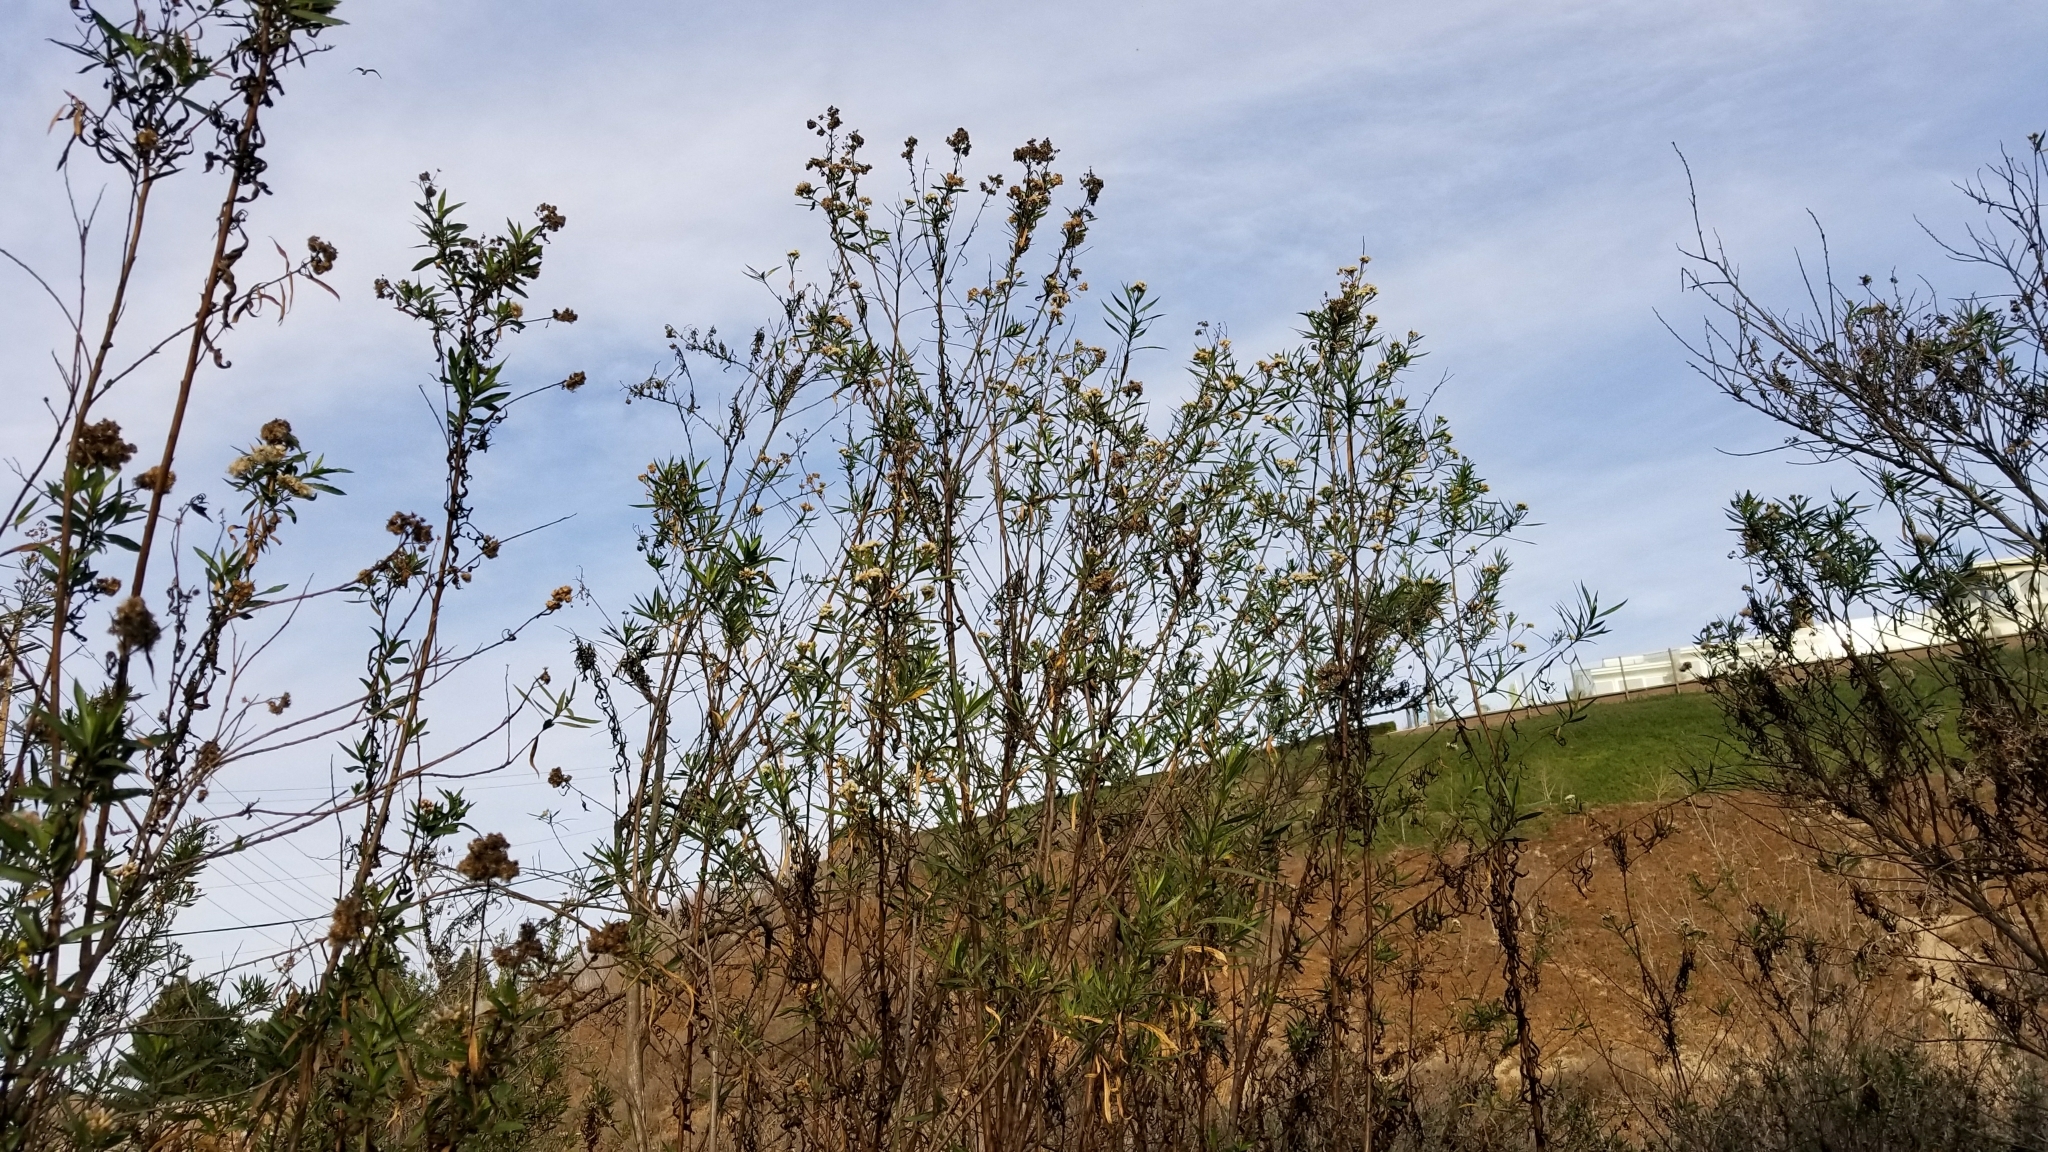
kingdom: Plantae
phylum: Tracheophyta
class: Magnoliopsida
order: Asterales
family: Asteraceae
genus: Baccharis
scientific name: Baccharis salicifolia
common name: Sticky baccharis
